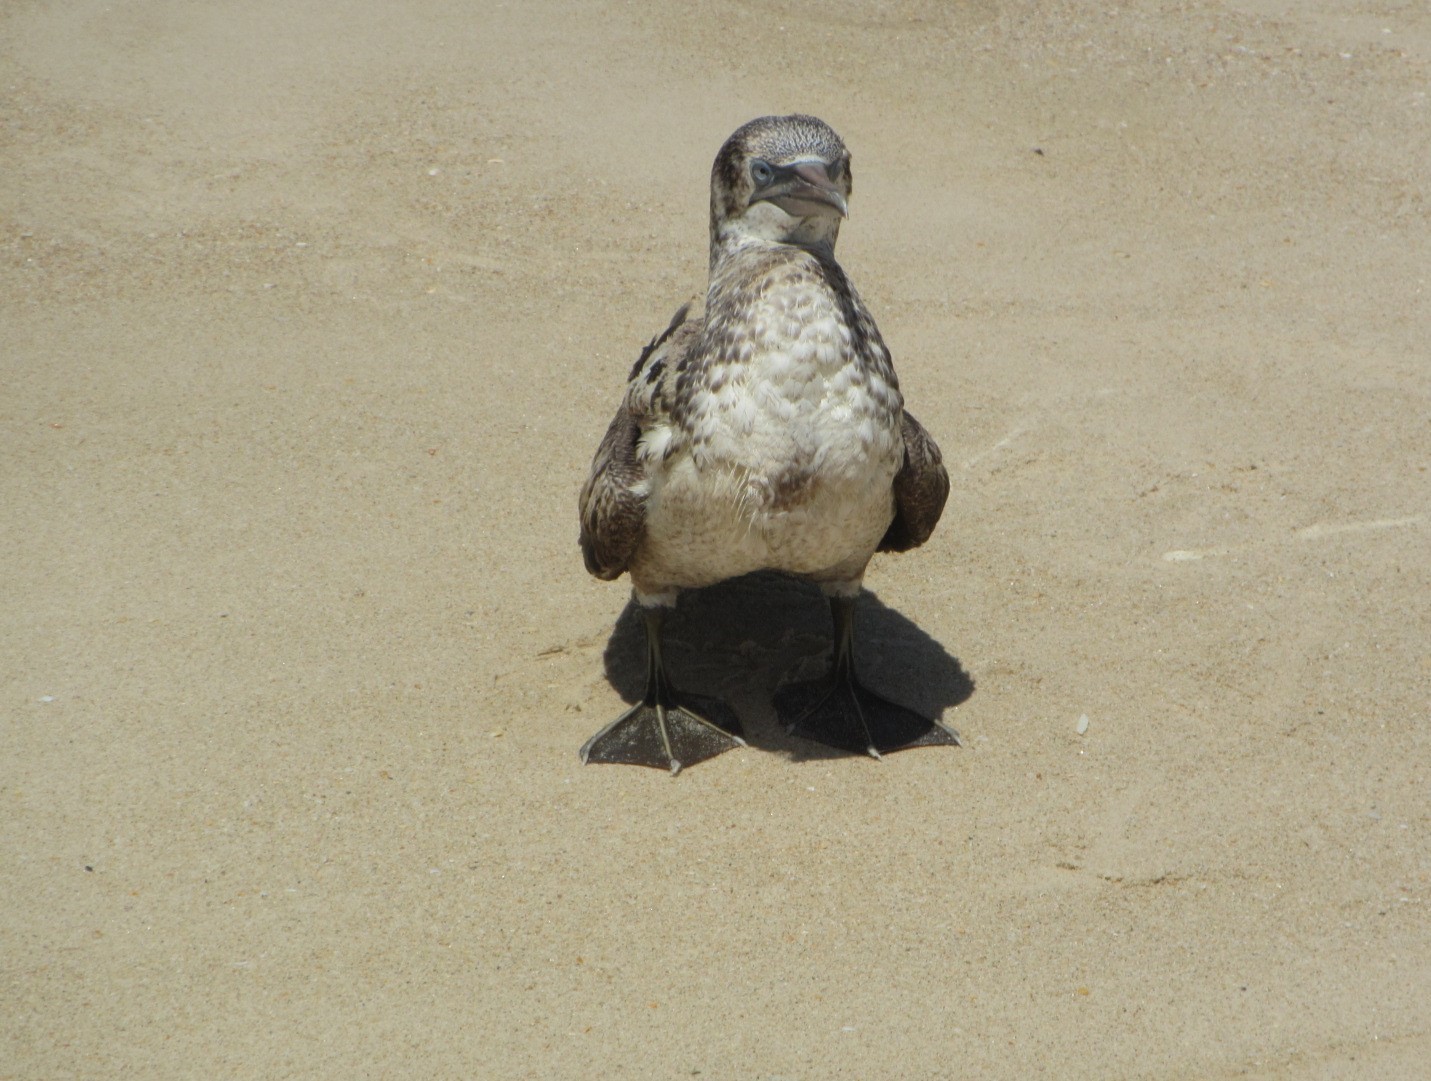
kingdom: Animalia
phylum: Chordata
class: Aves
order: Suliformes
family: Sulidae
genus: Morus
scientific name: Morus bassanus
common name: Northern gannet
